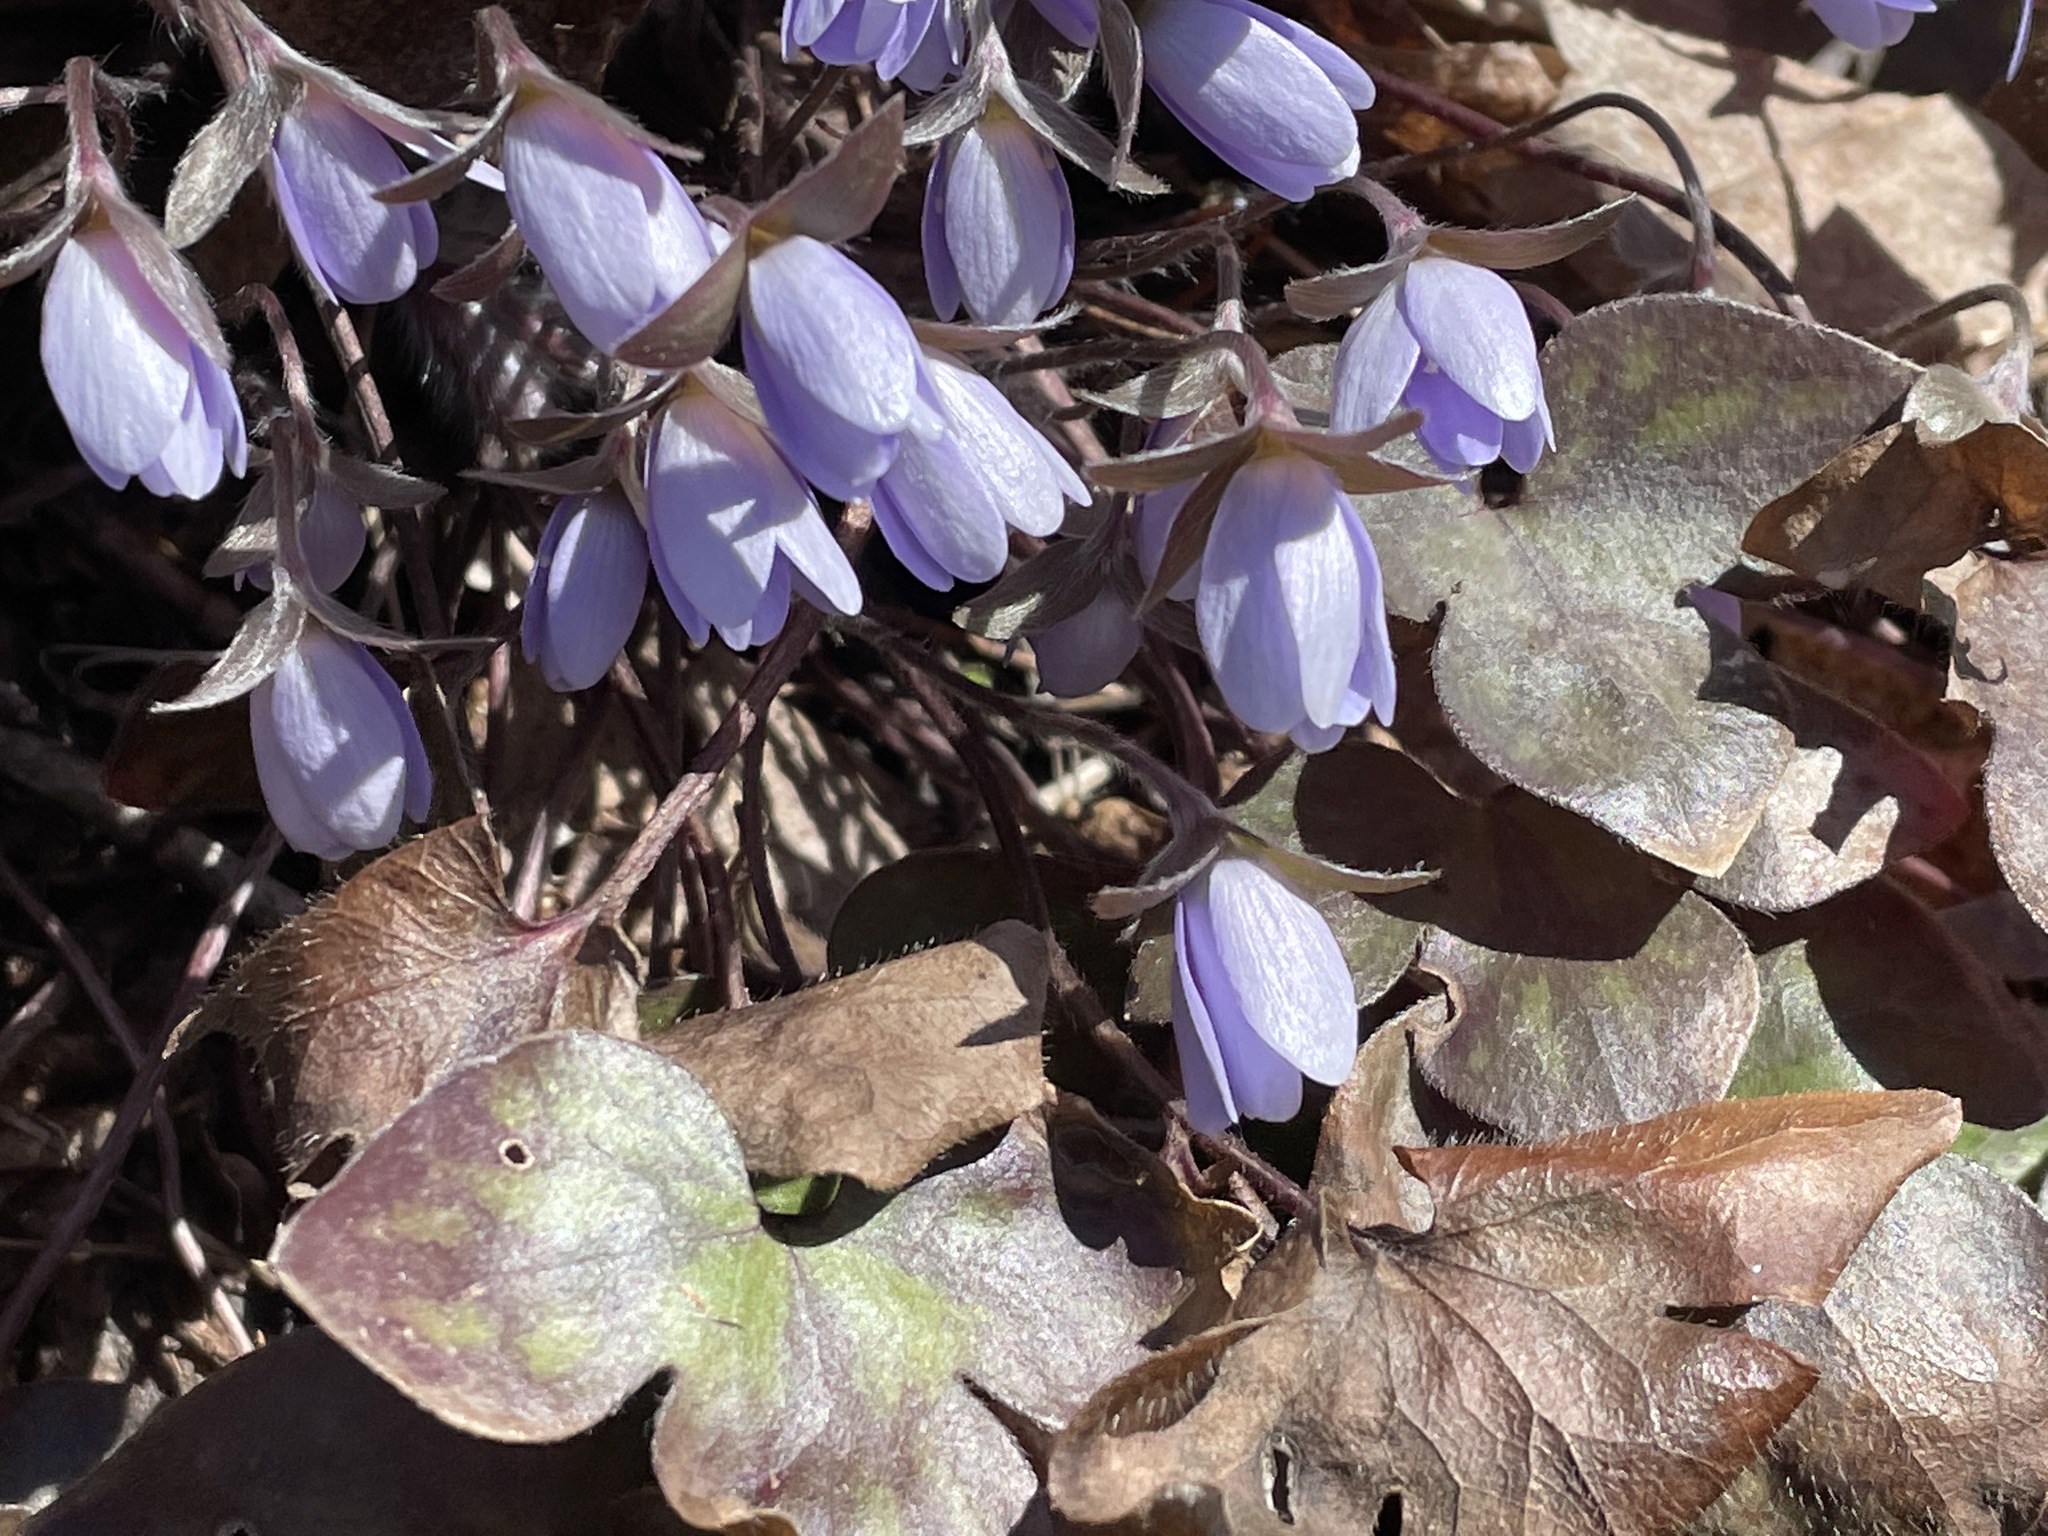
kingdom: Plantae
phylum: Tracheophyta
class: Magnoliopsida
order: Ranunculales
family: Ranunculaceae
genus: Hepatica
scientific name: Hepatica acutiloba
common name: Sharp-lobed hepatica
